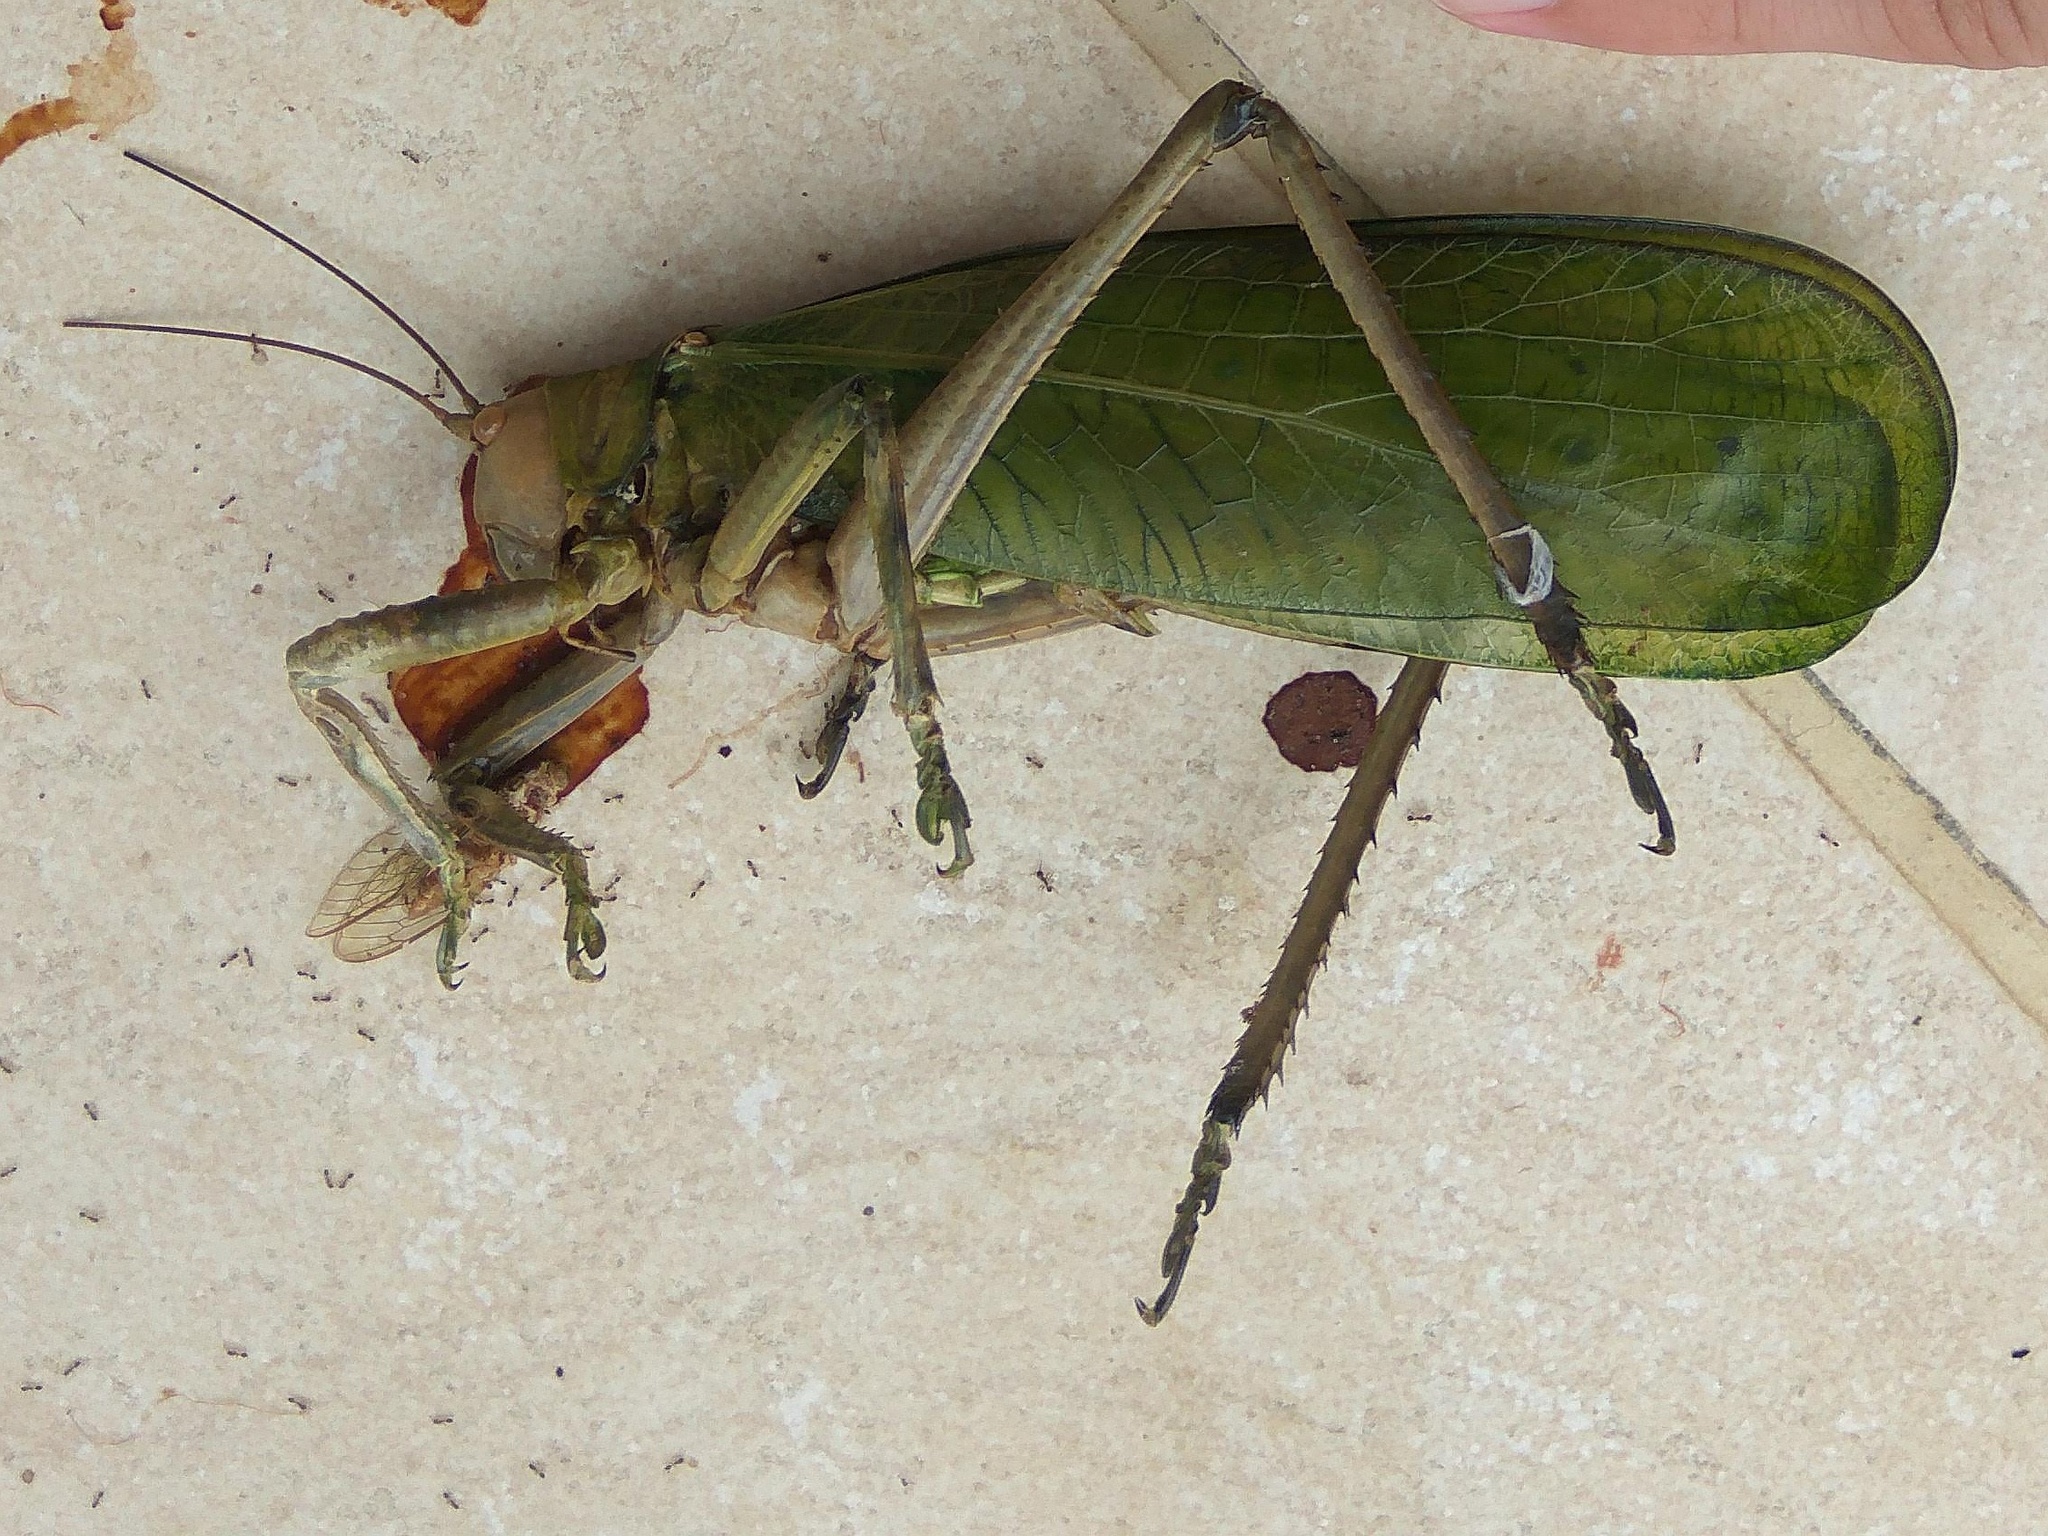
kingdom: Animalia
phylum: Arthropoda
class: Insecta
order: Orthoptera
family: Tettigoniidae
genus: Pseudophyllanax
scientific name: Pseudophyllanax imperialis
